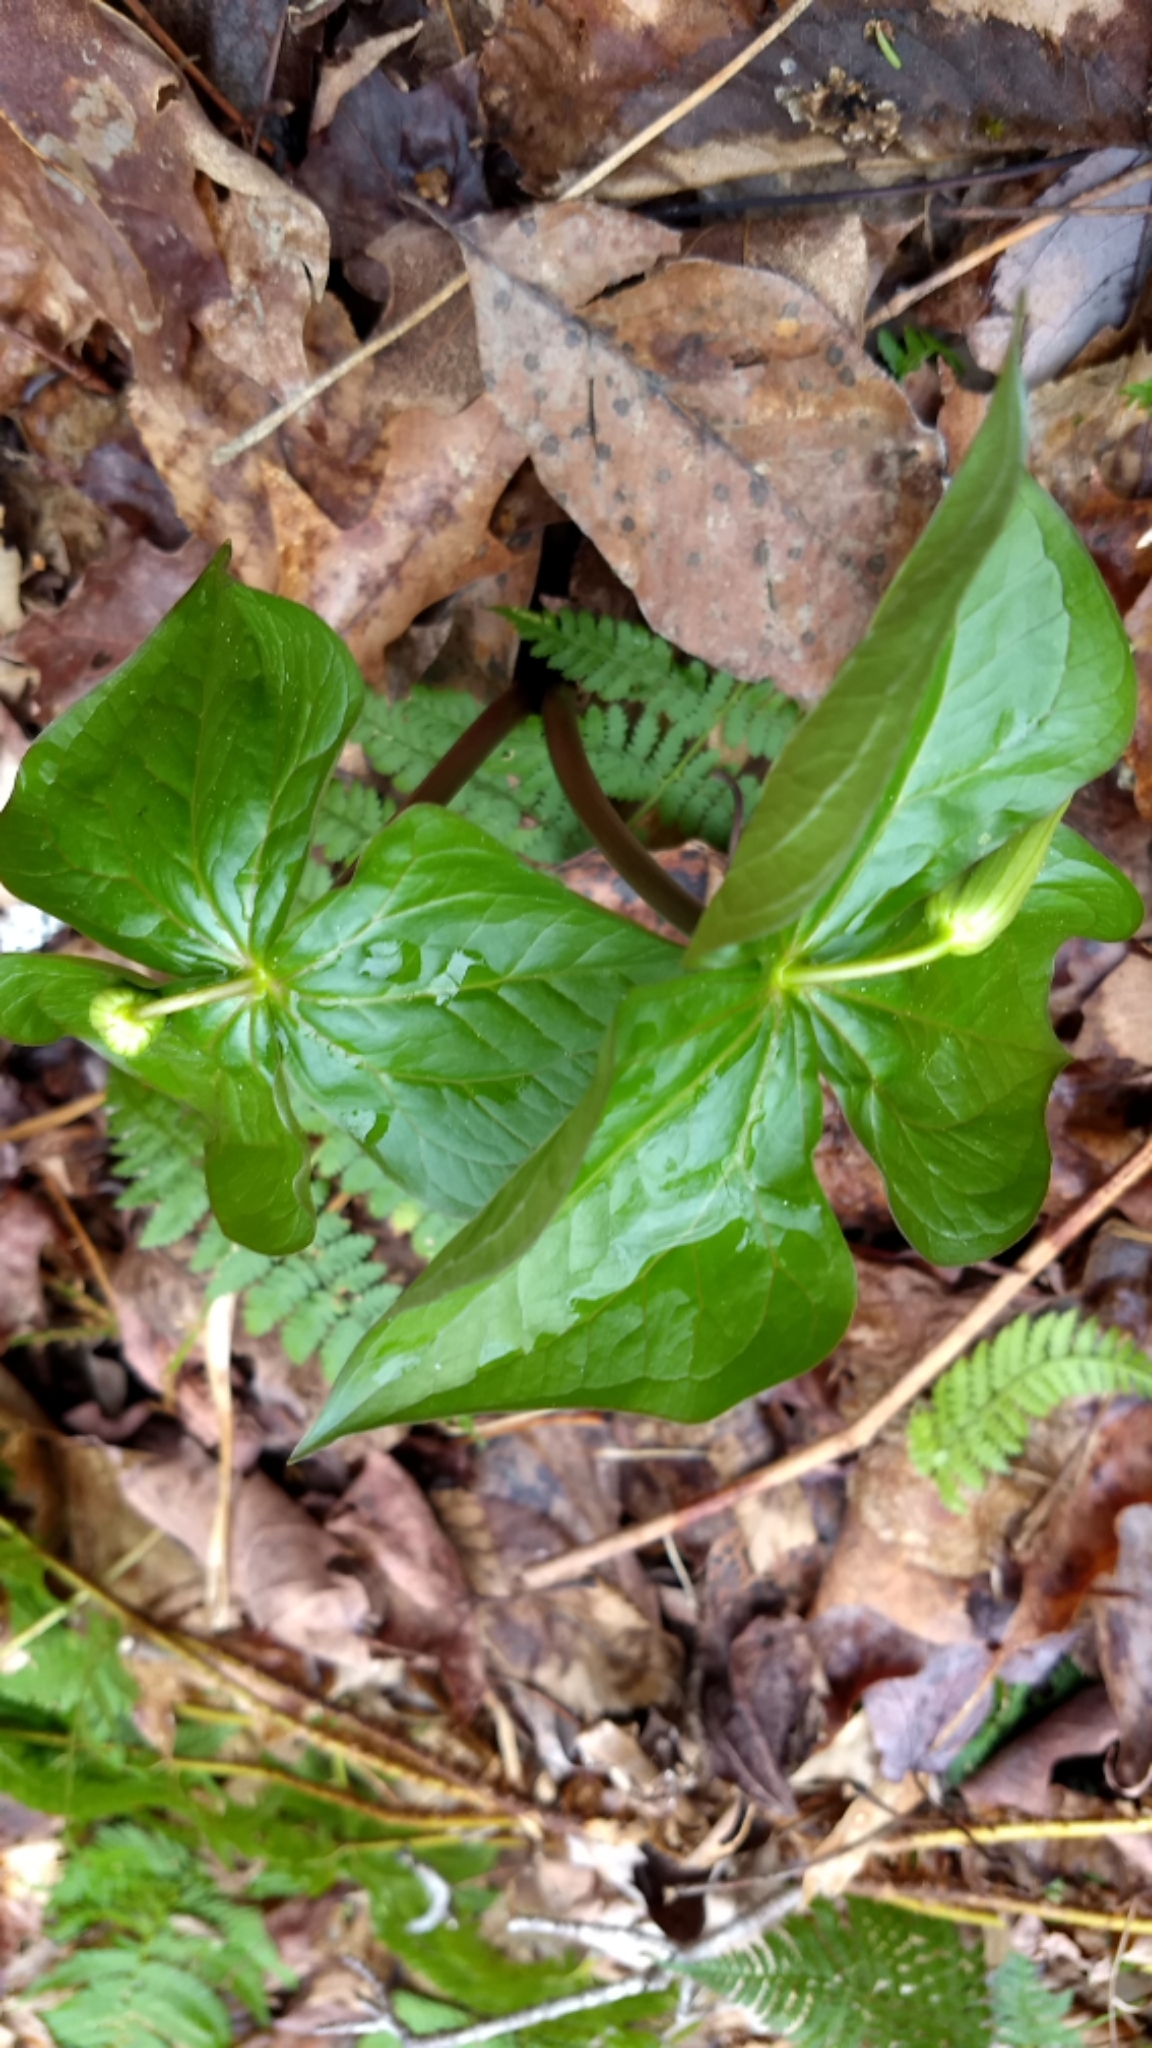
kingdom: Plantae
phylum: Tracheophyta
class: Liliopsida
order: Liliales
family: Melanthiaceae
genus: Trillium
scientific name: Trillium erectum
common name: Purple trillium
